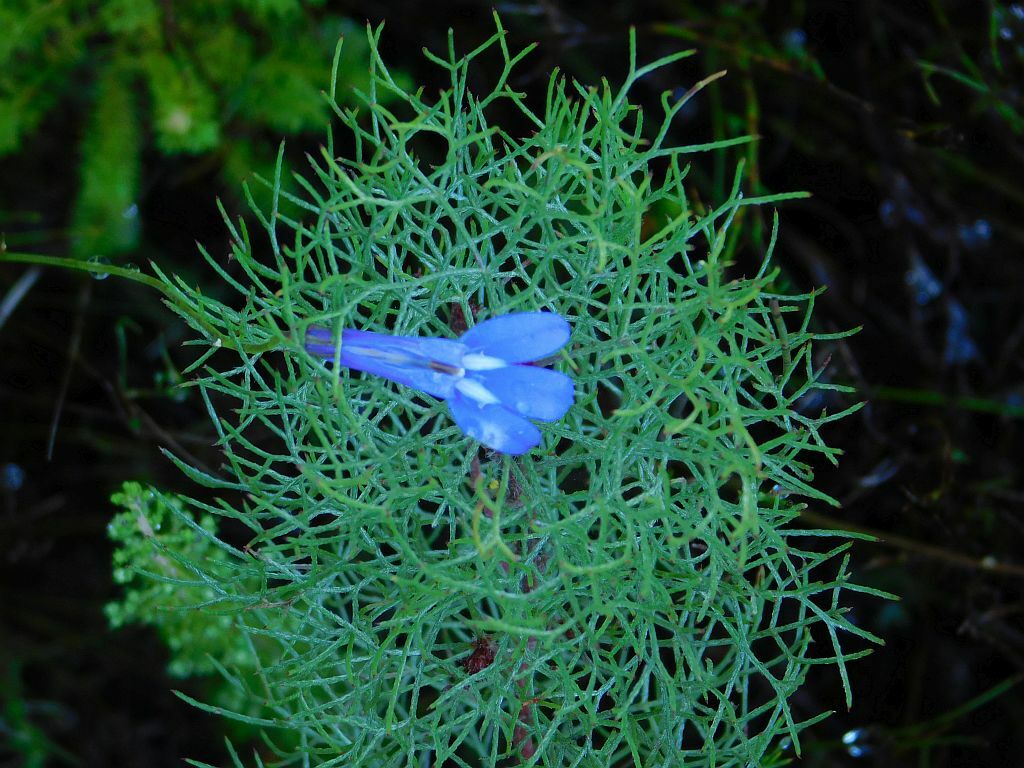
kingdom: Plantae
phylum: Tracheophyta
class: Magnoliopsida
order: Asterales
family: Campanulaceae
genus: Lobelia
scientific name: Lobelia coronopifolia
